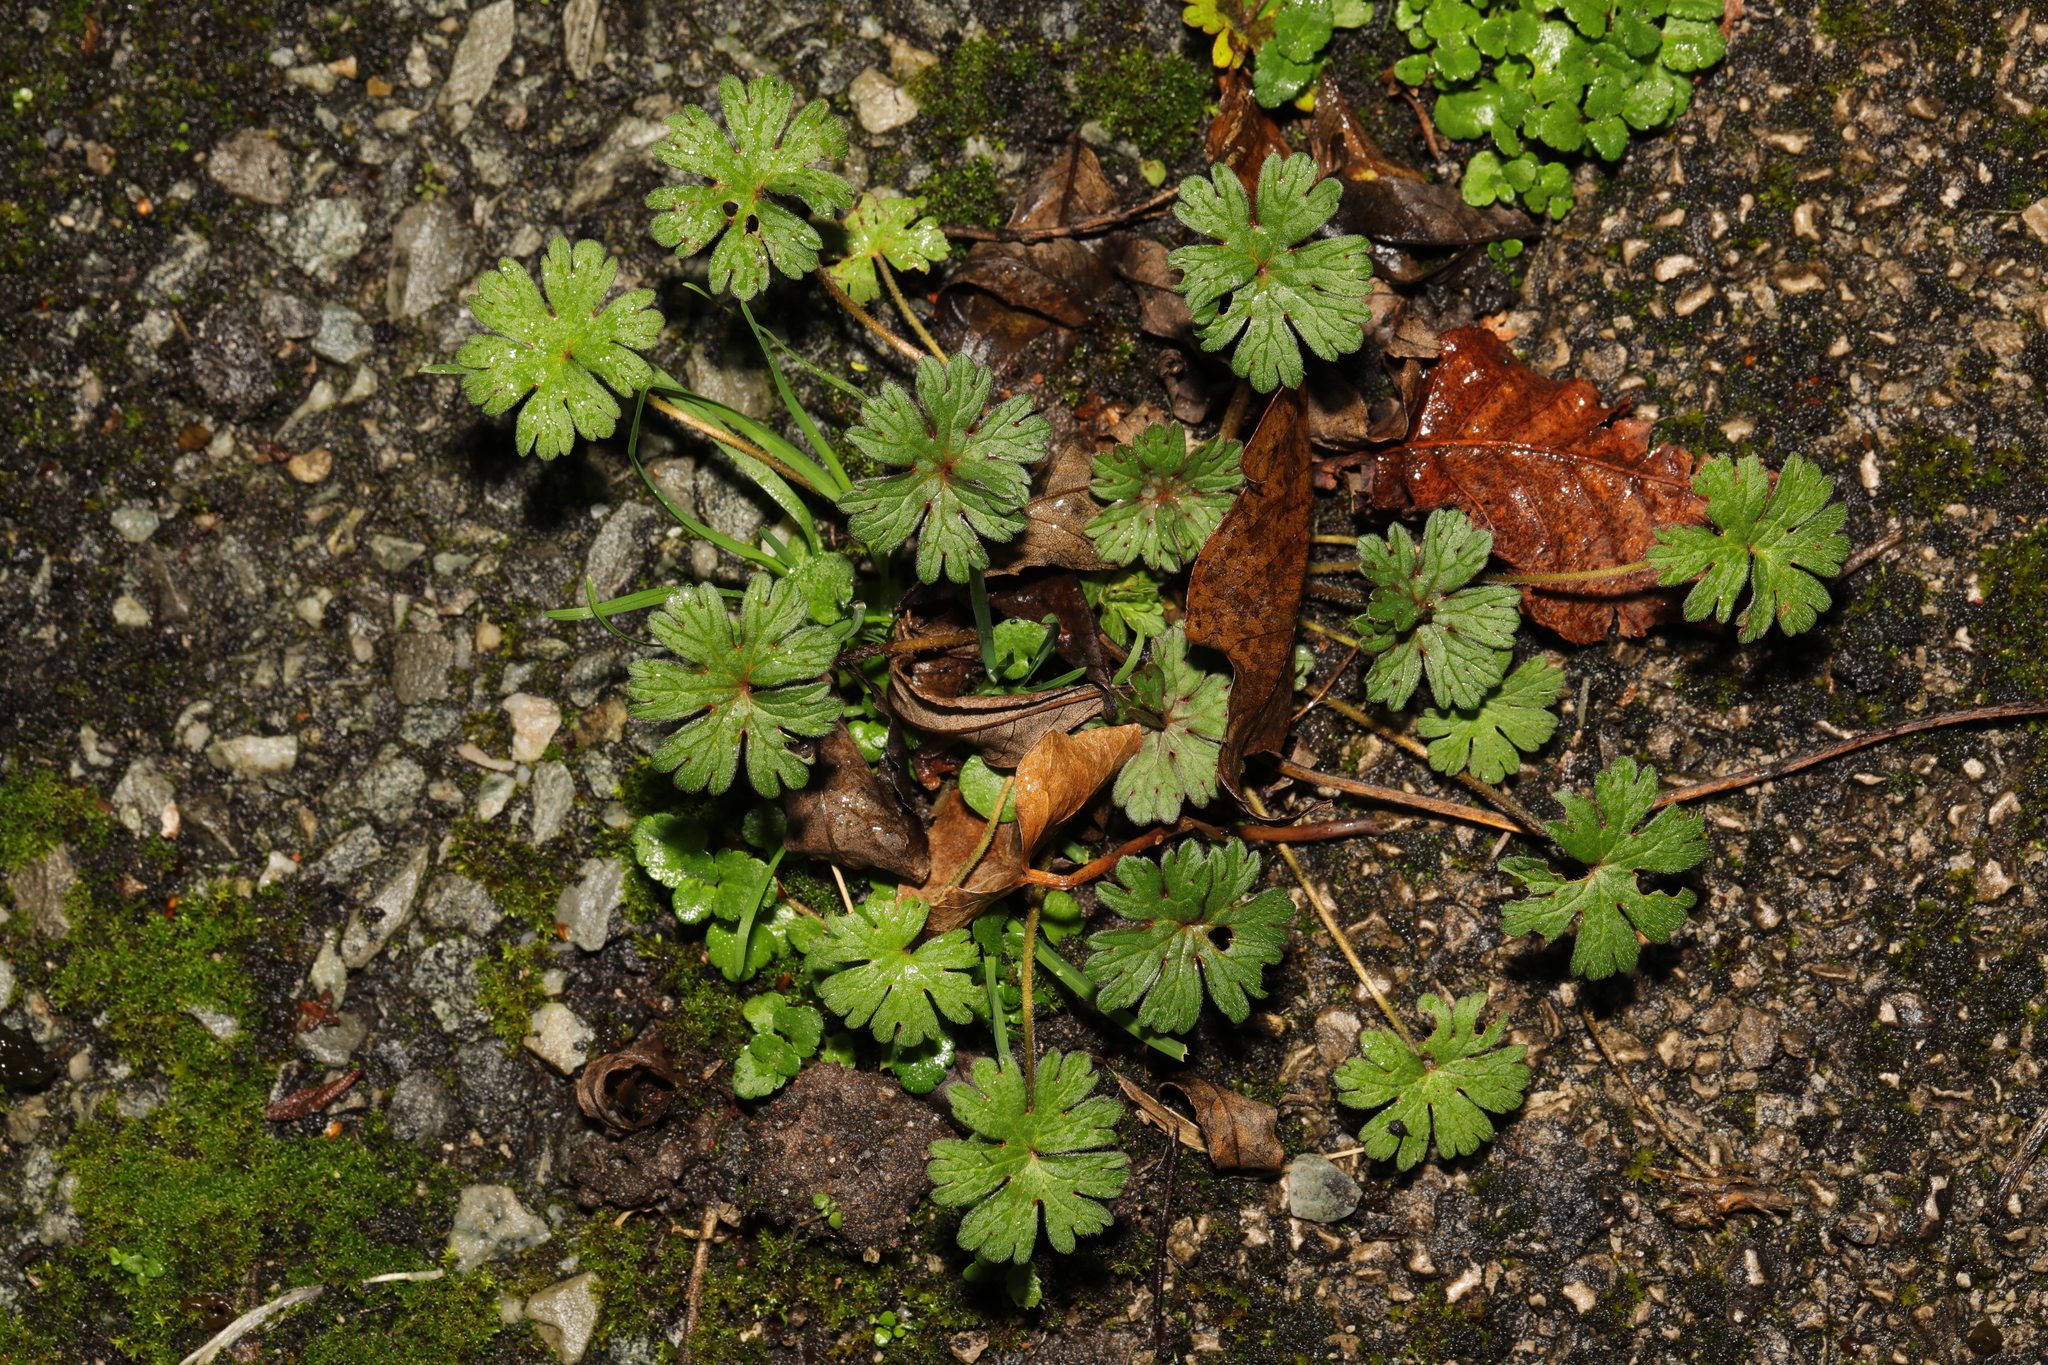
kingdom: Plantae
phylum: Tracheophyta
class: Magnoliopsida
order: Geraniales
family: Geraniaceae
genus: Geranium
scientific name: Geranium molle
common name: Dove's-foot crane's-bill
